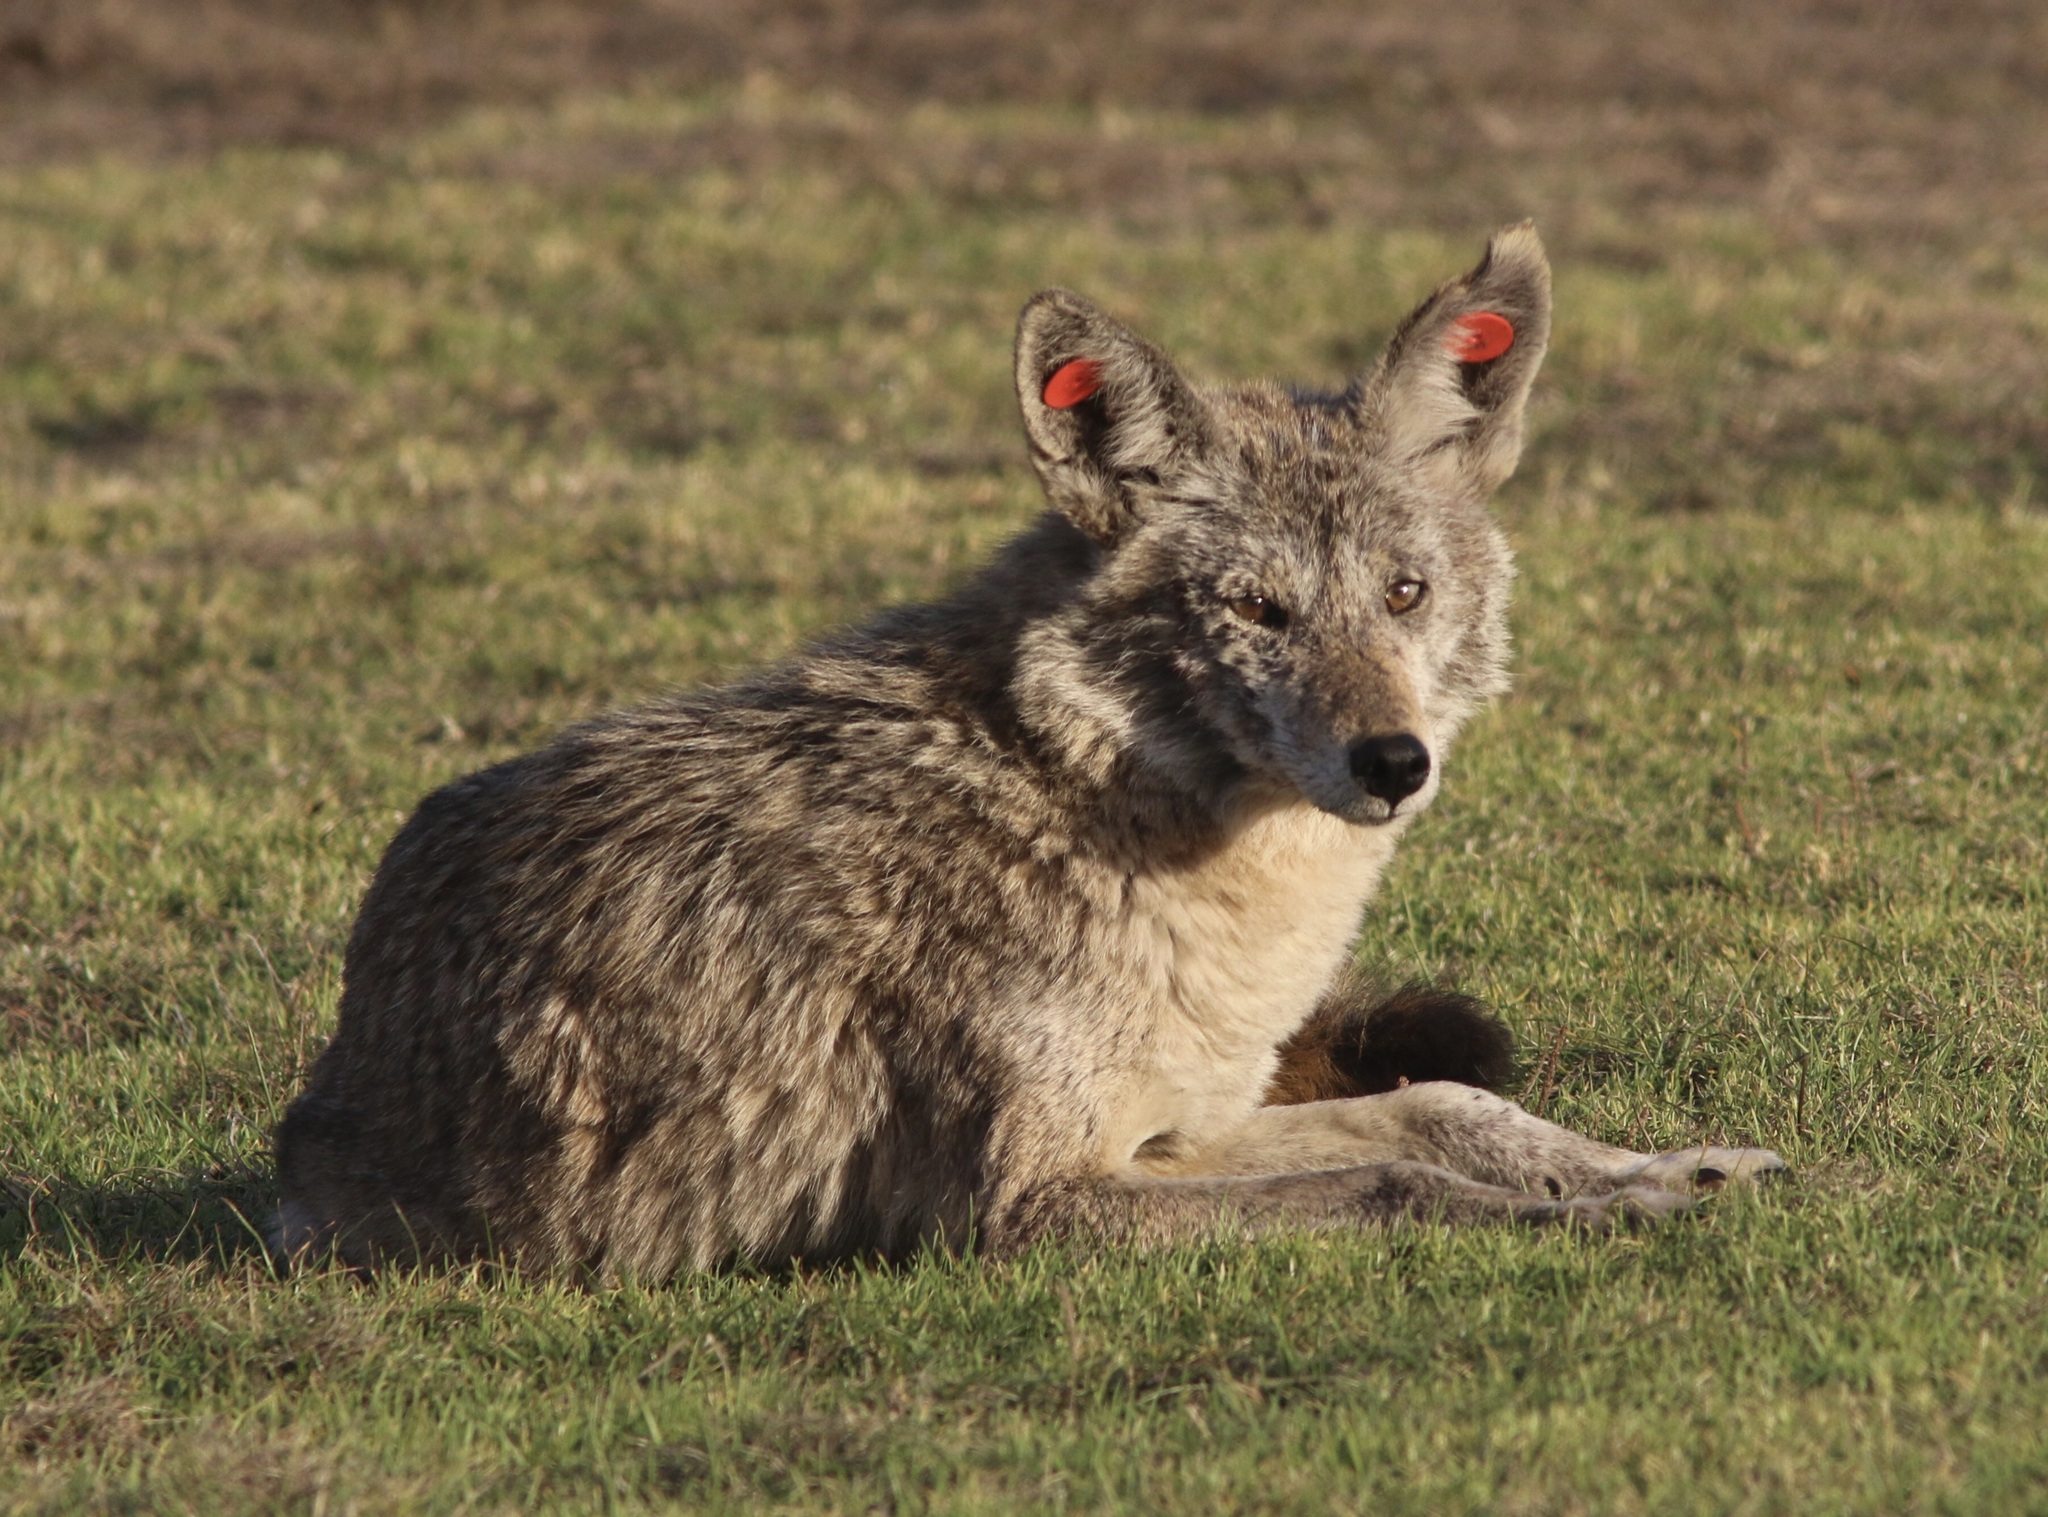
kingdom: Animalia
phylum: Chordata
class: Mammalia
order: Carnivora
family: Canidae
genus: Canis
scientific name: Canis latrans
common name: Coyote
